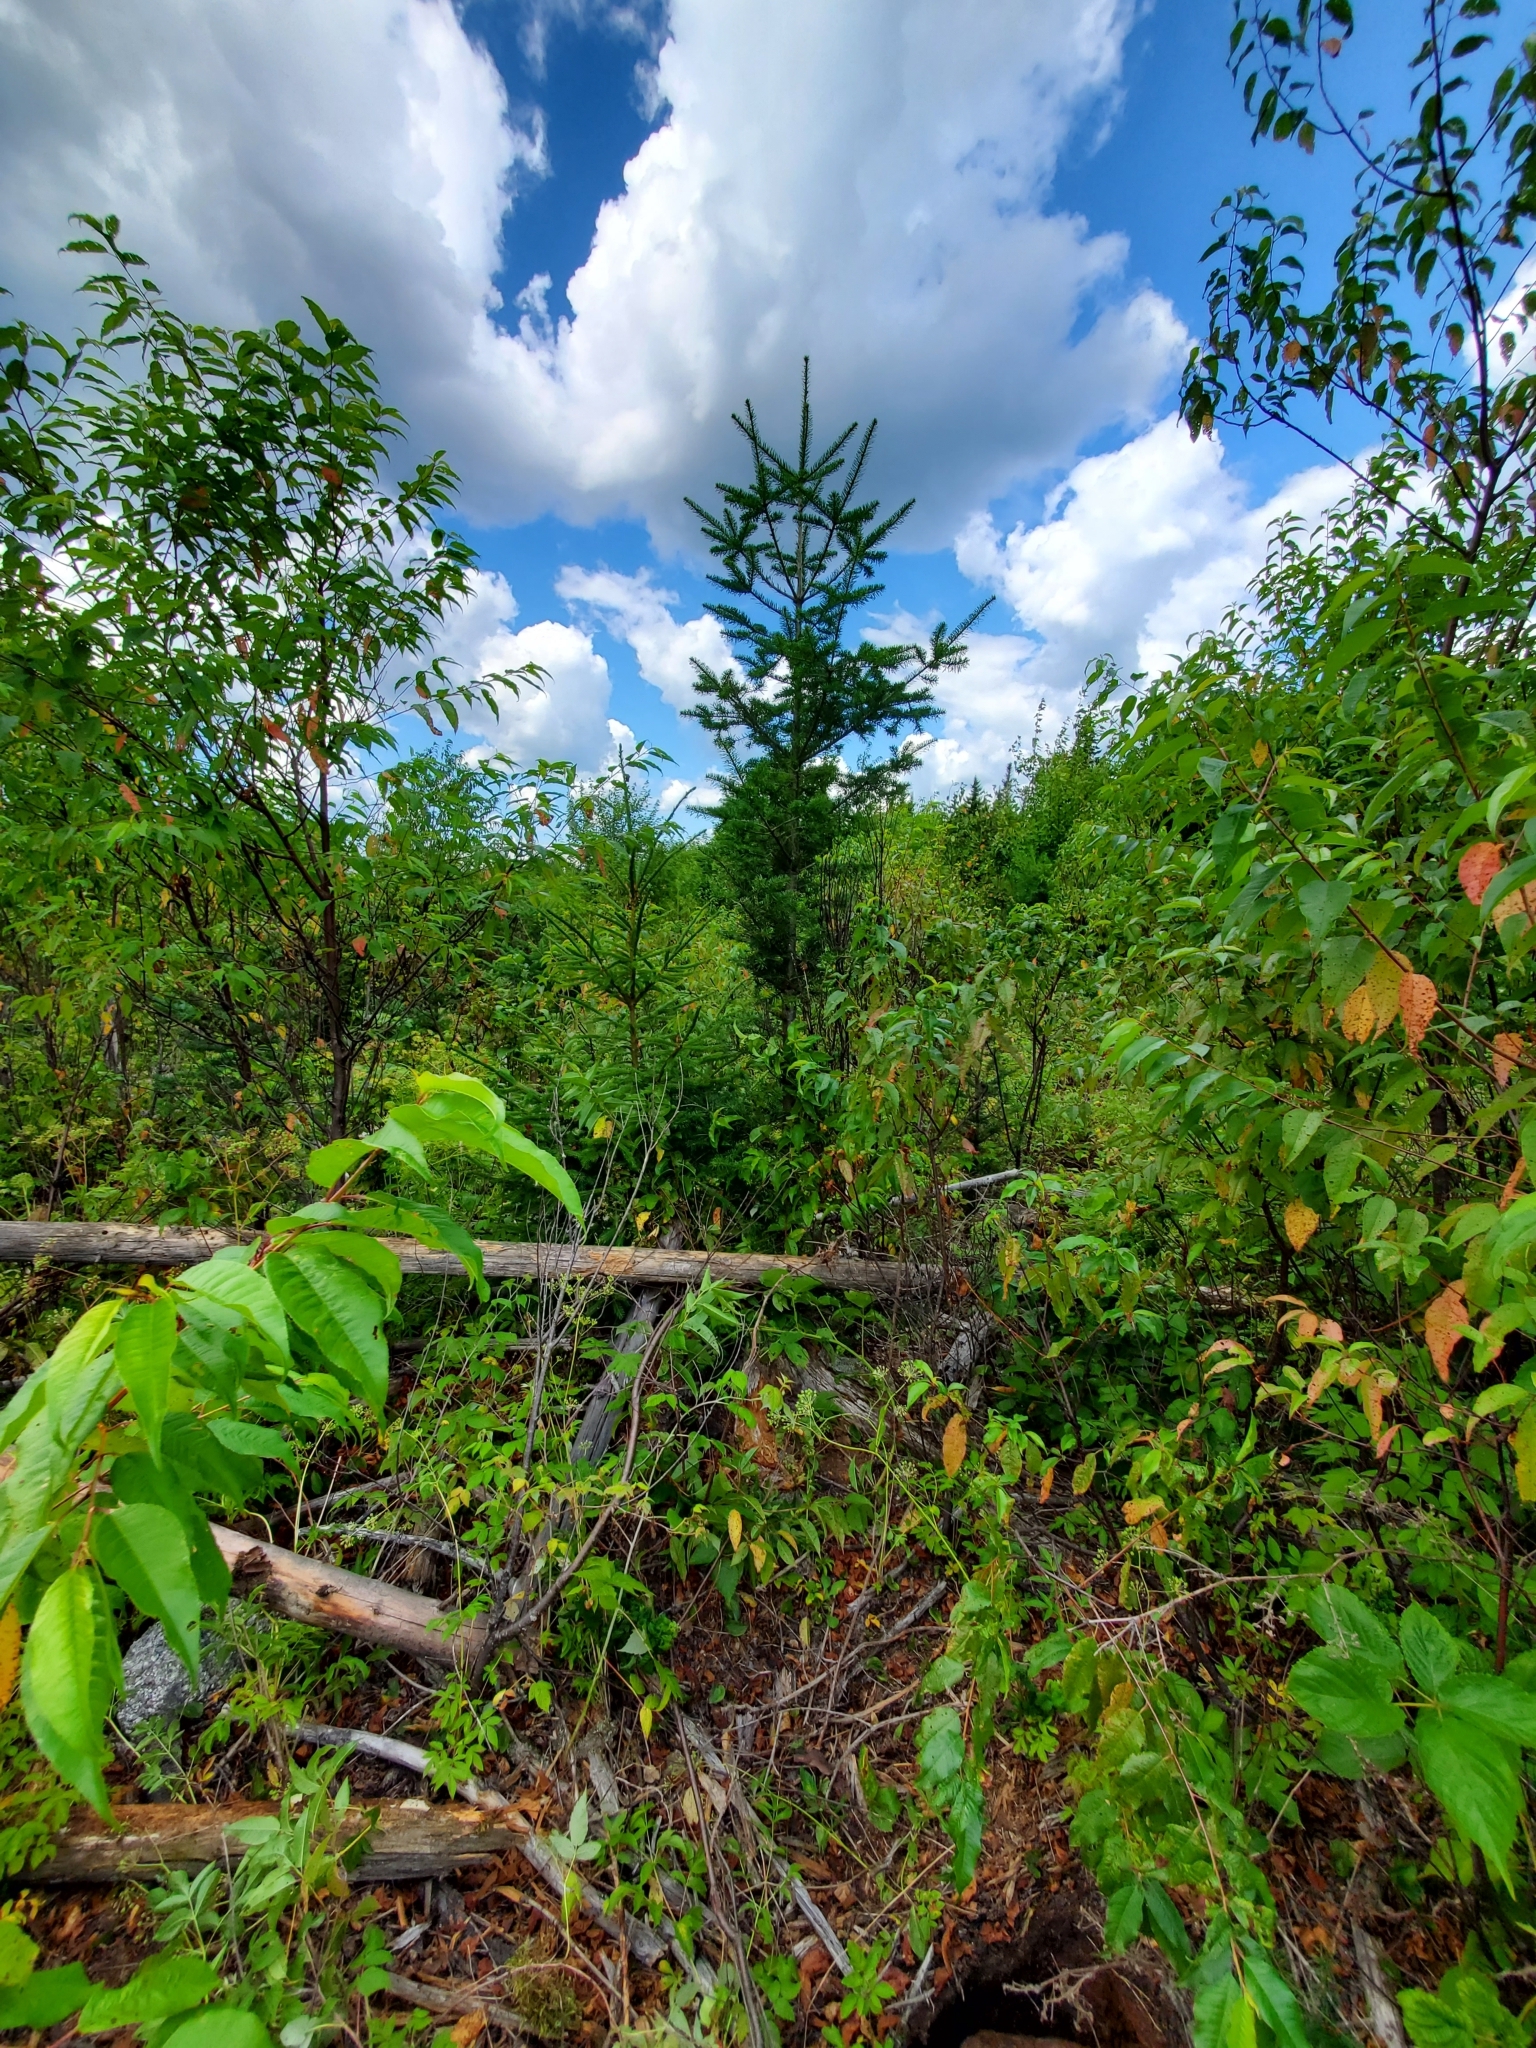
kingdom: Animalia
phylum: Chordata
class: Amphibia
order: Caudata
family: Plethodontidae
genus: Plethodon
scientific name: Plethodon cinereus
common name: Redback salamander
